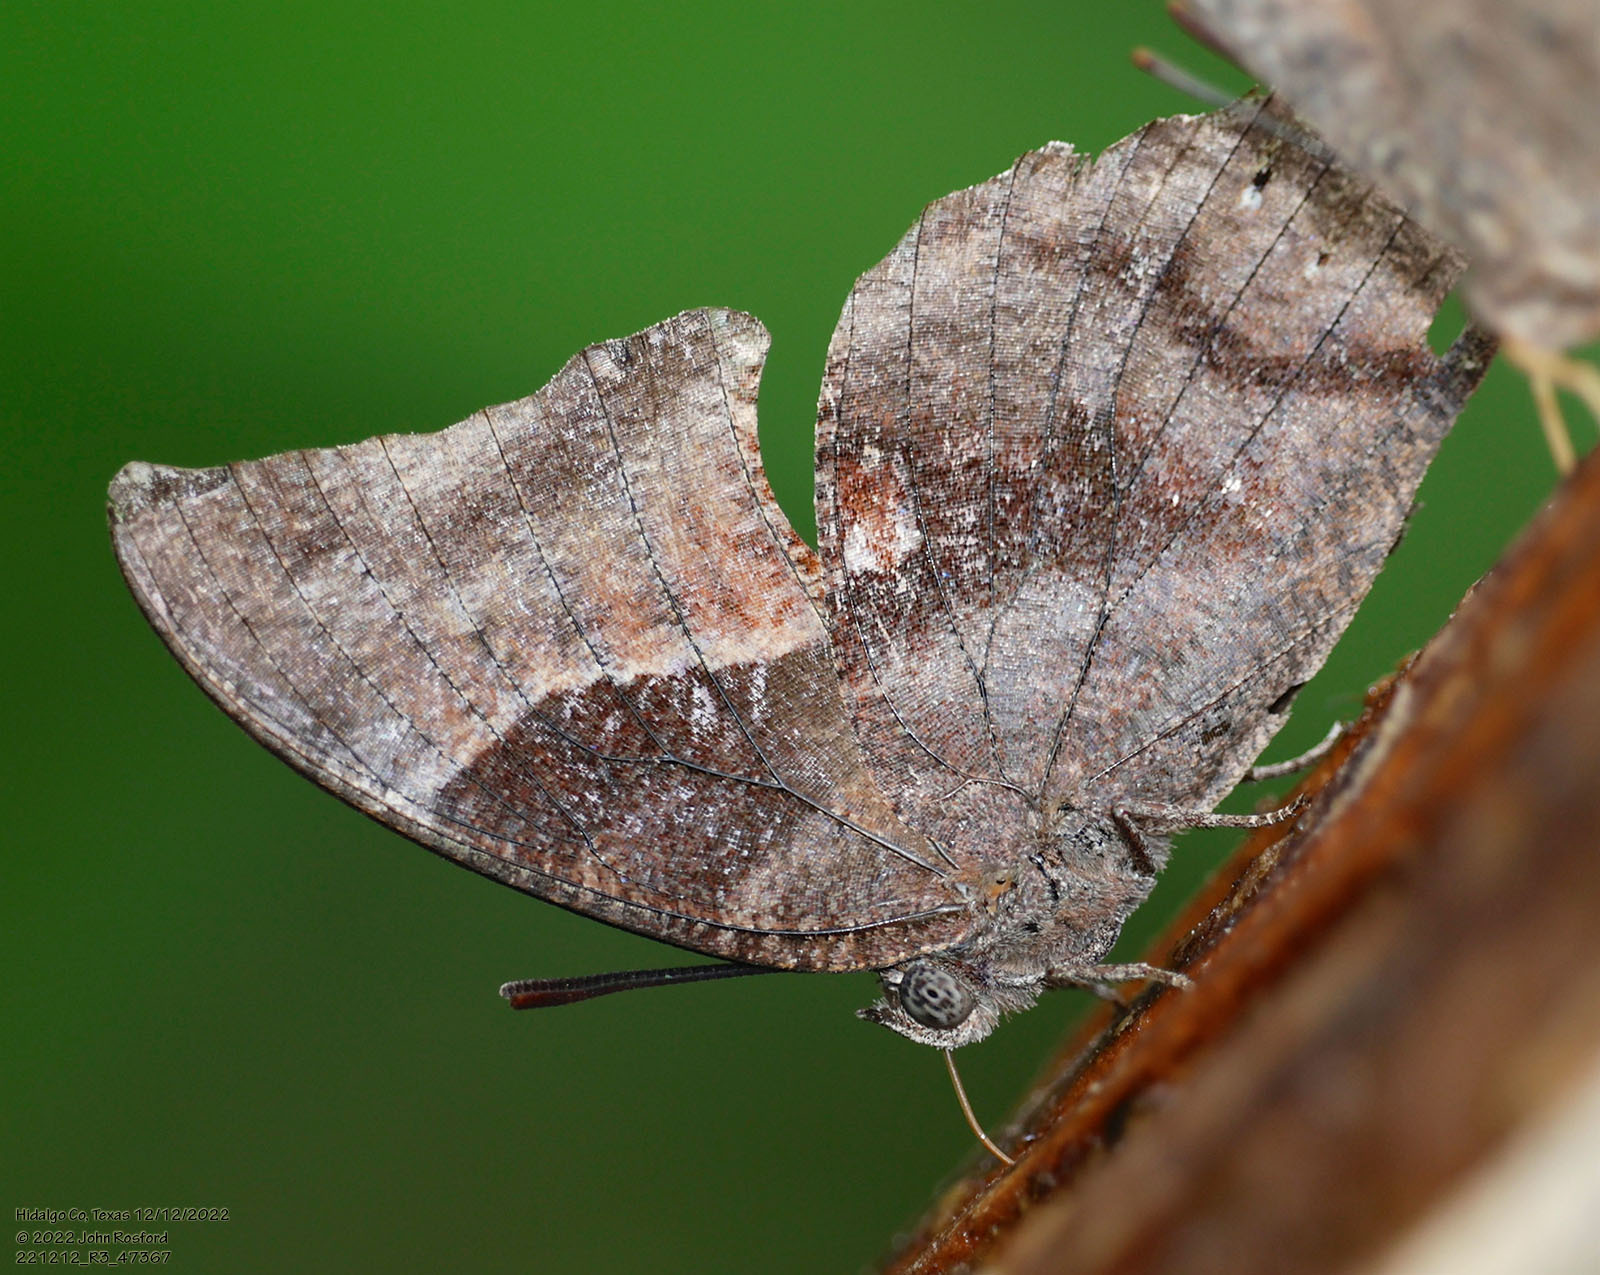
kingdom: Animalia
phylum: Arthropoda
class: Insecta
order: Lepidoptera
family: Nymphalidae
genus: Anaea
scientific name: Anaea pithyusa
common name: Pale-spotted leafwing
